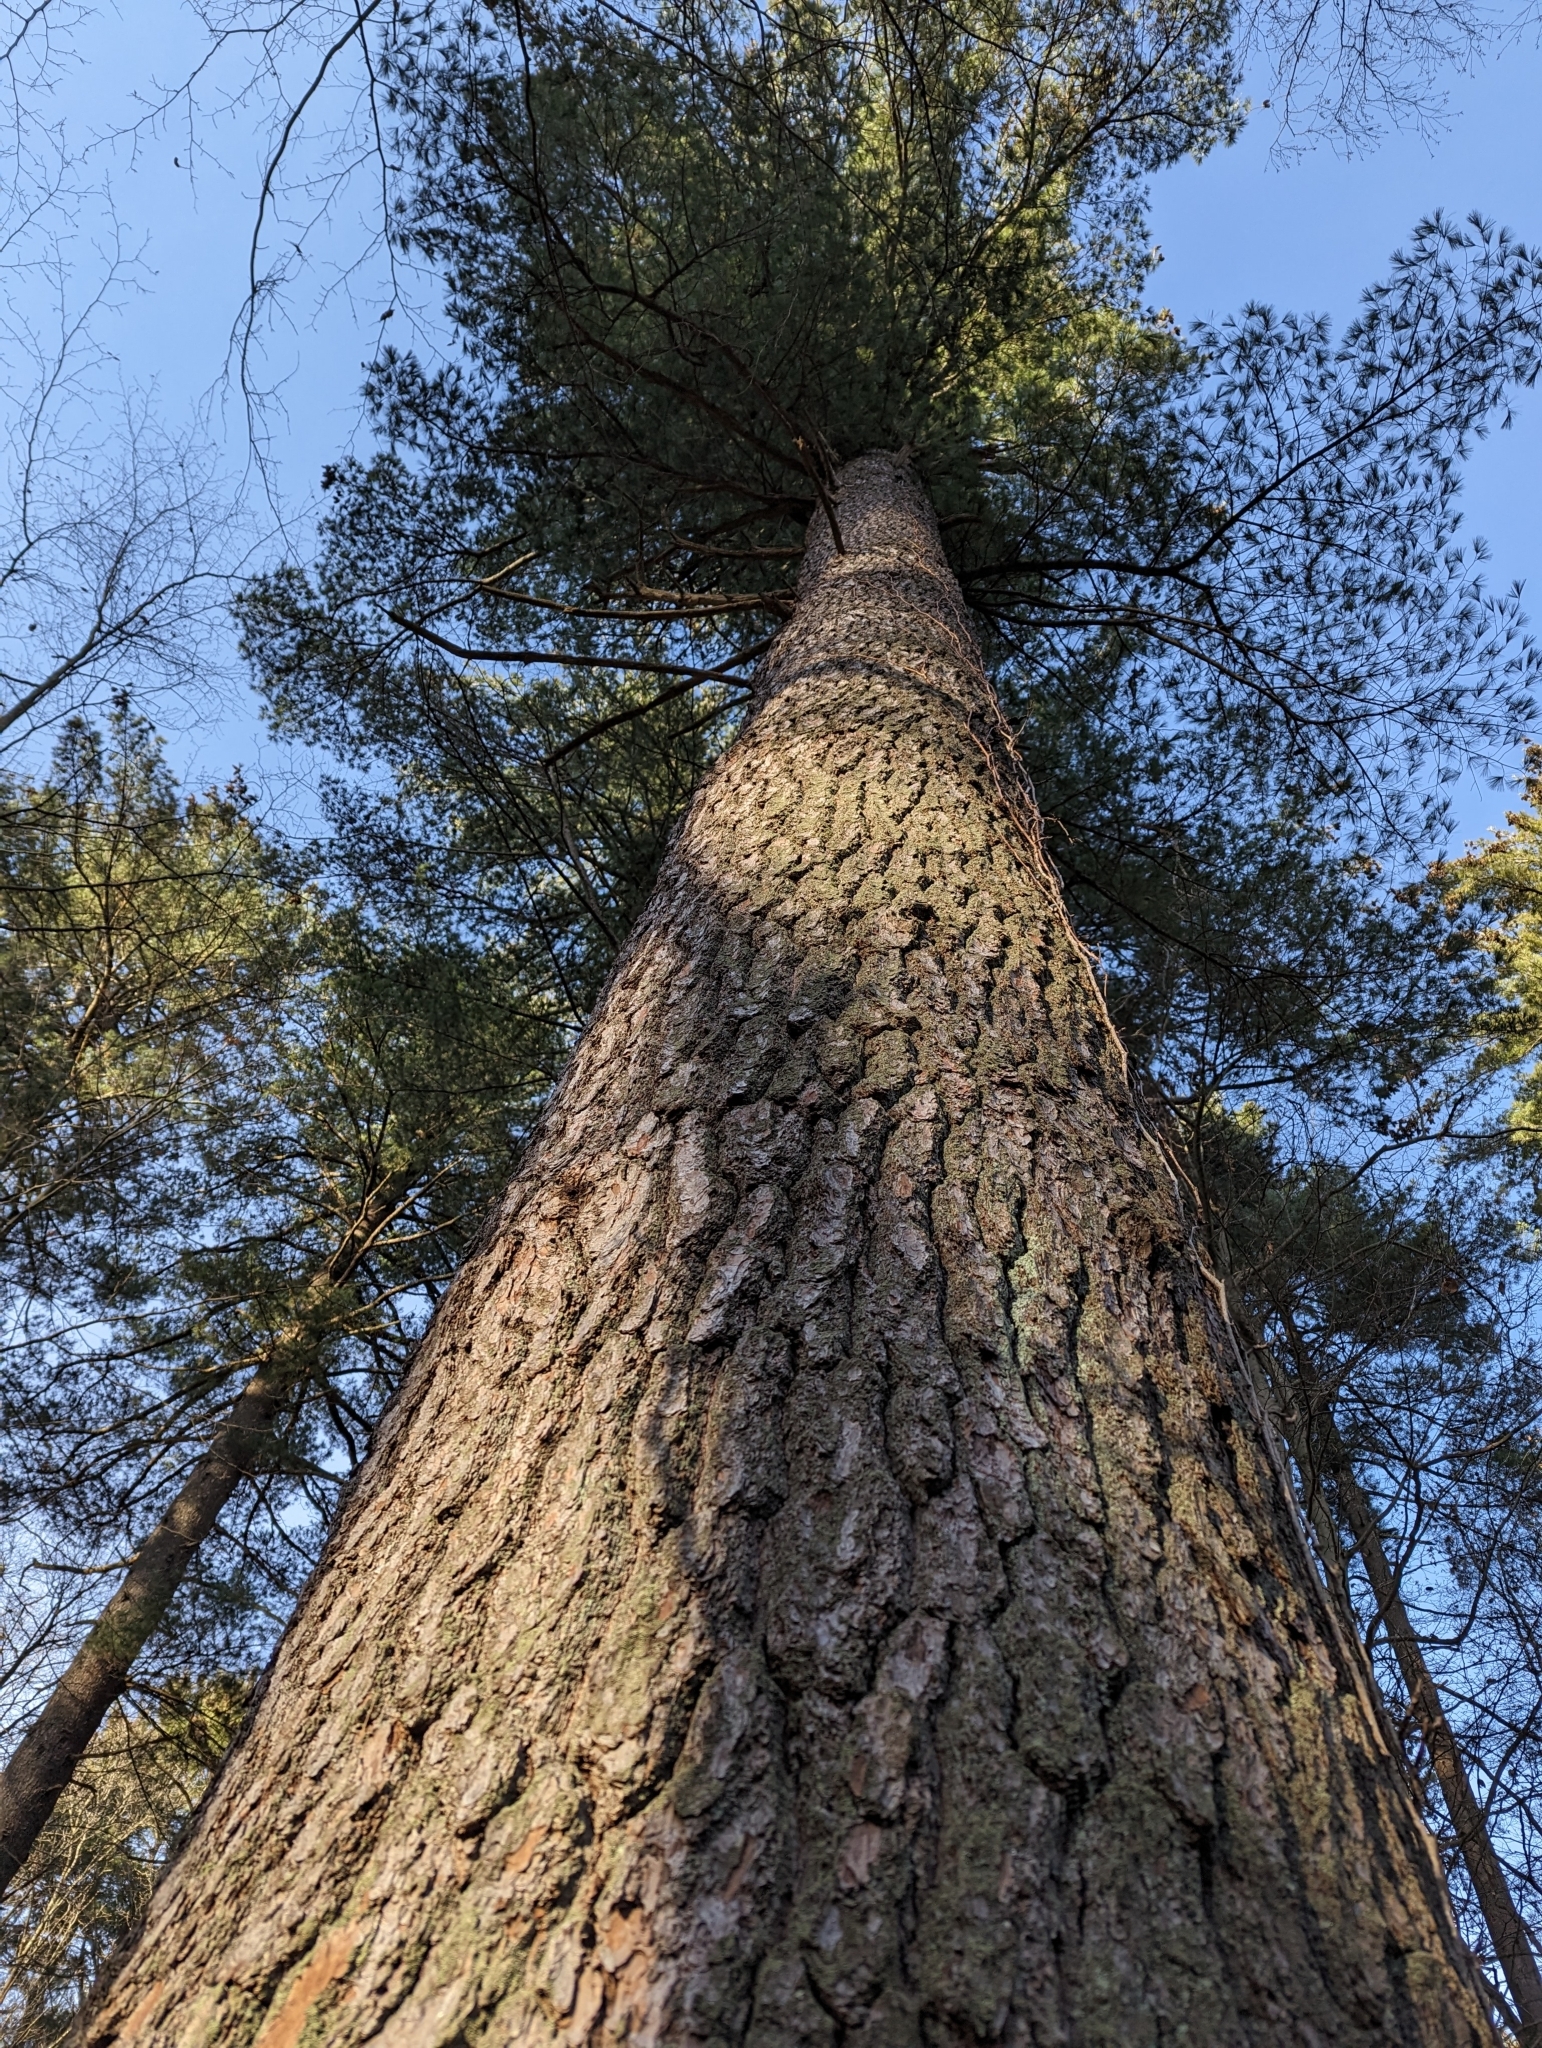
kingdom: Plantae
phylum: Tracheophyta
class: Pinopsida
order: Pinales
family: Pinaceae
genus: Pinus
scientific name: Pinus strobus
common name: Weymouth pine
